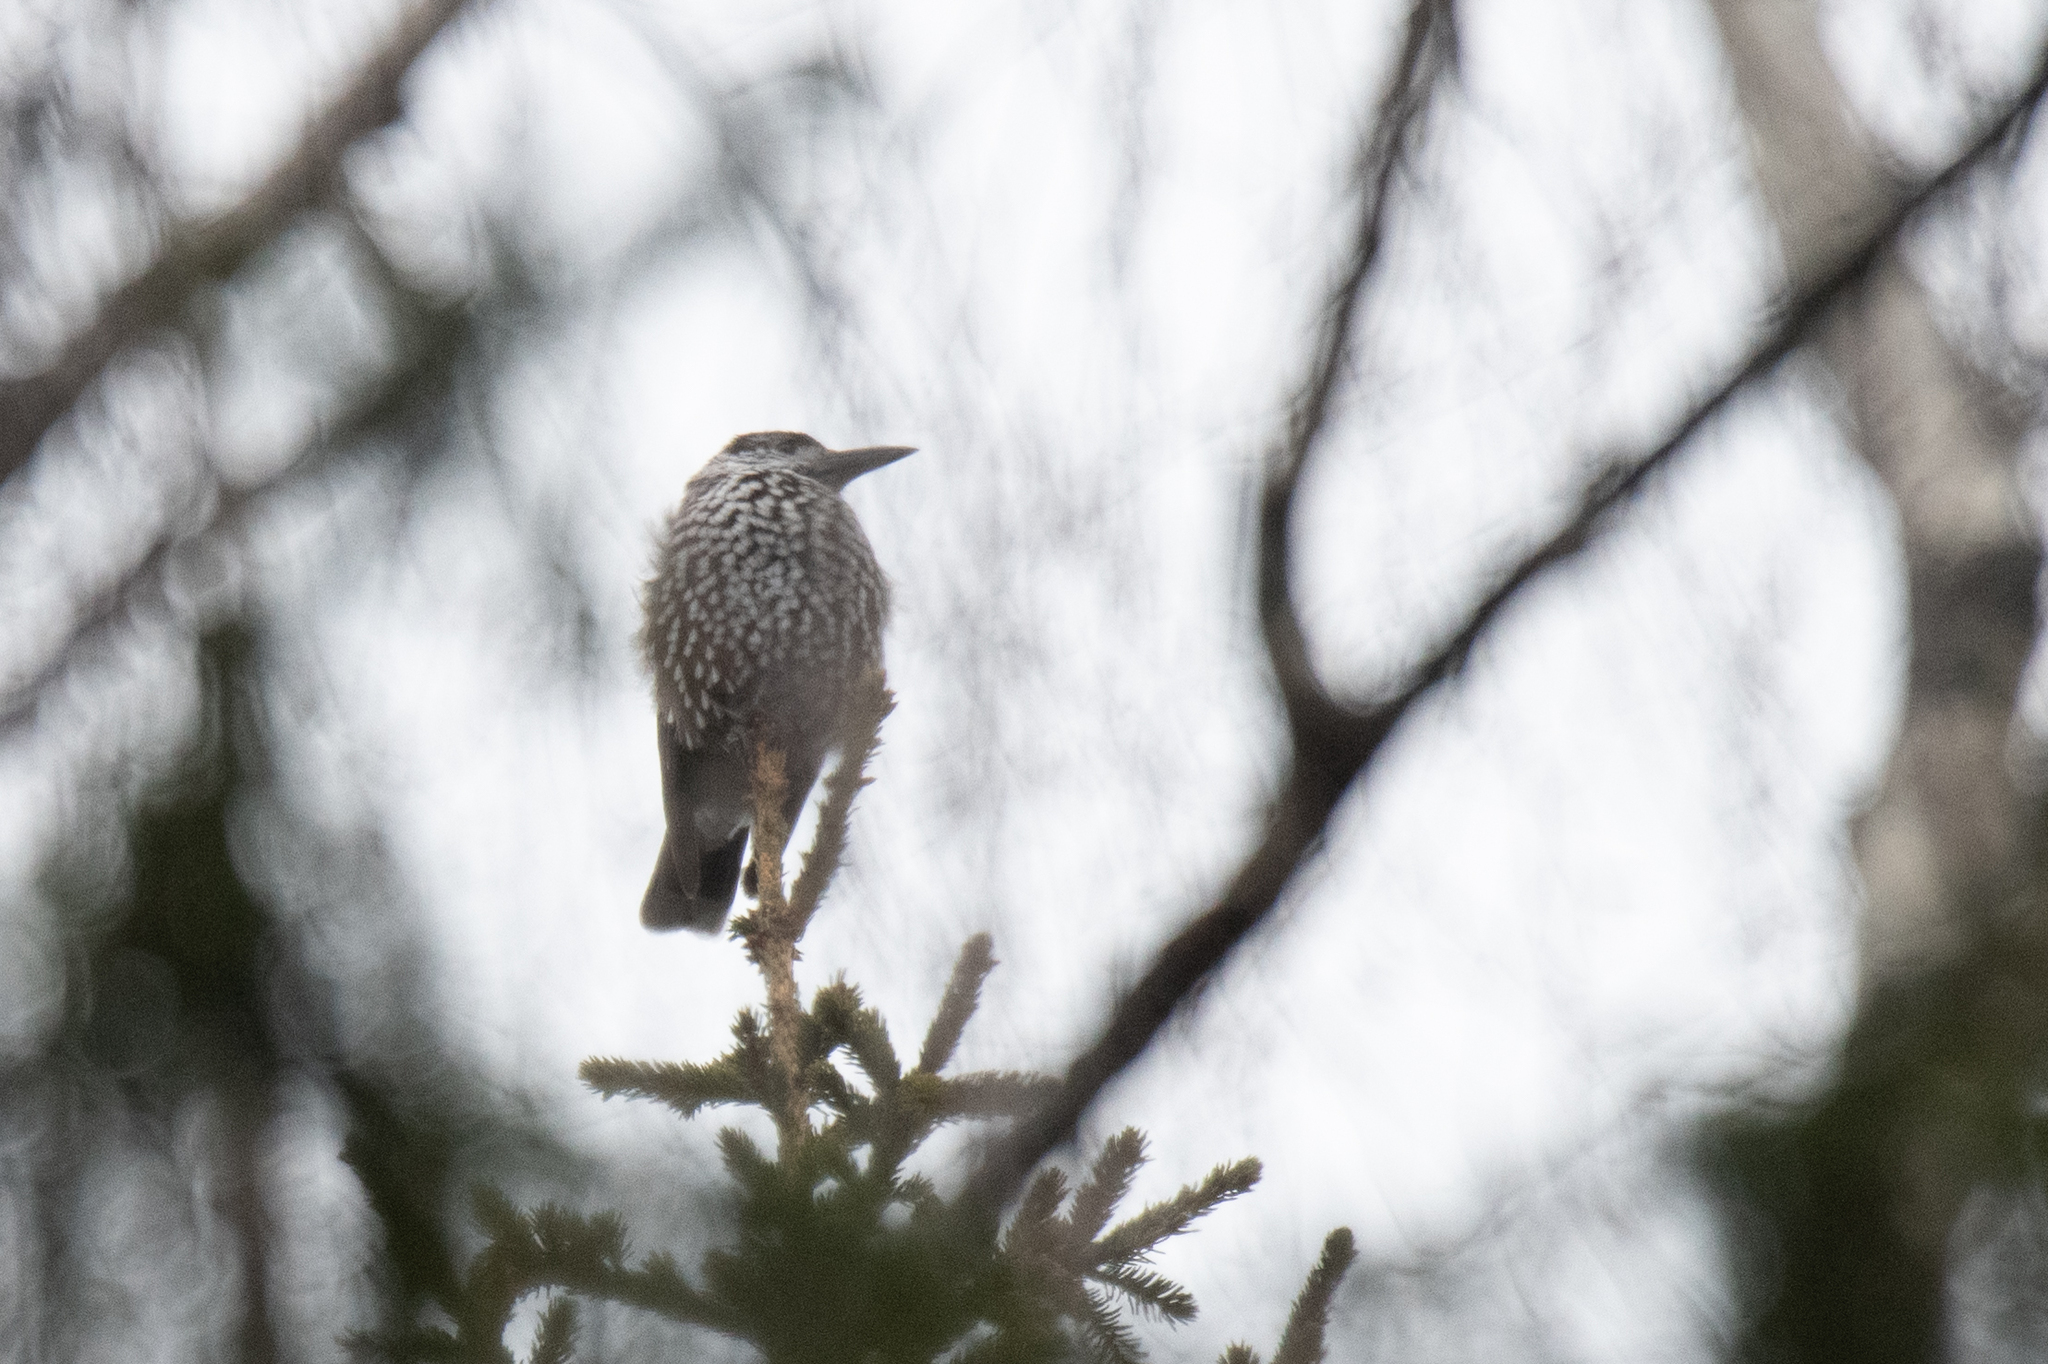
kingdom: Animalia
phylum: Chordata
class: Aves
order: Passeriformes
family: Corvidae
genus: Nucifraga
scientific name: Nucifraga caryocatactes
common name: Spotted nutcracker
